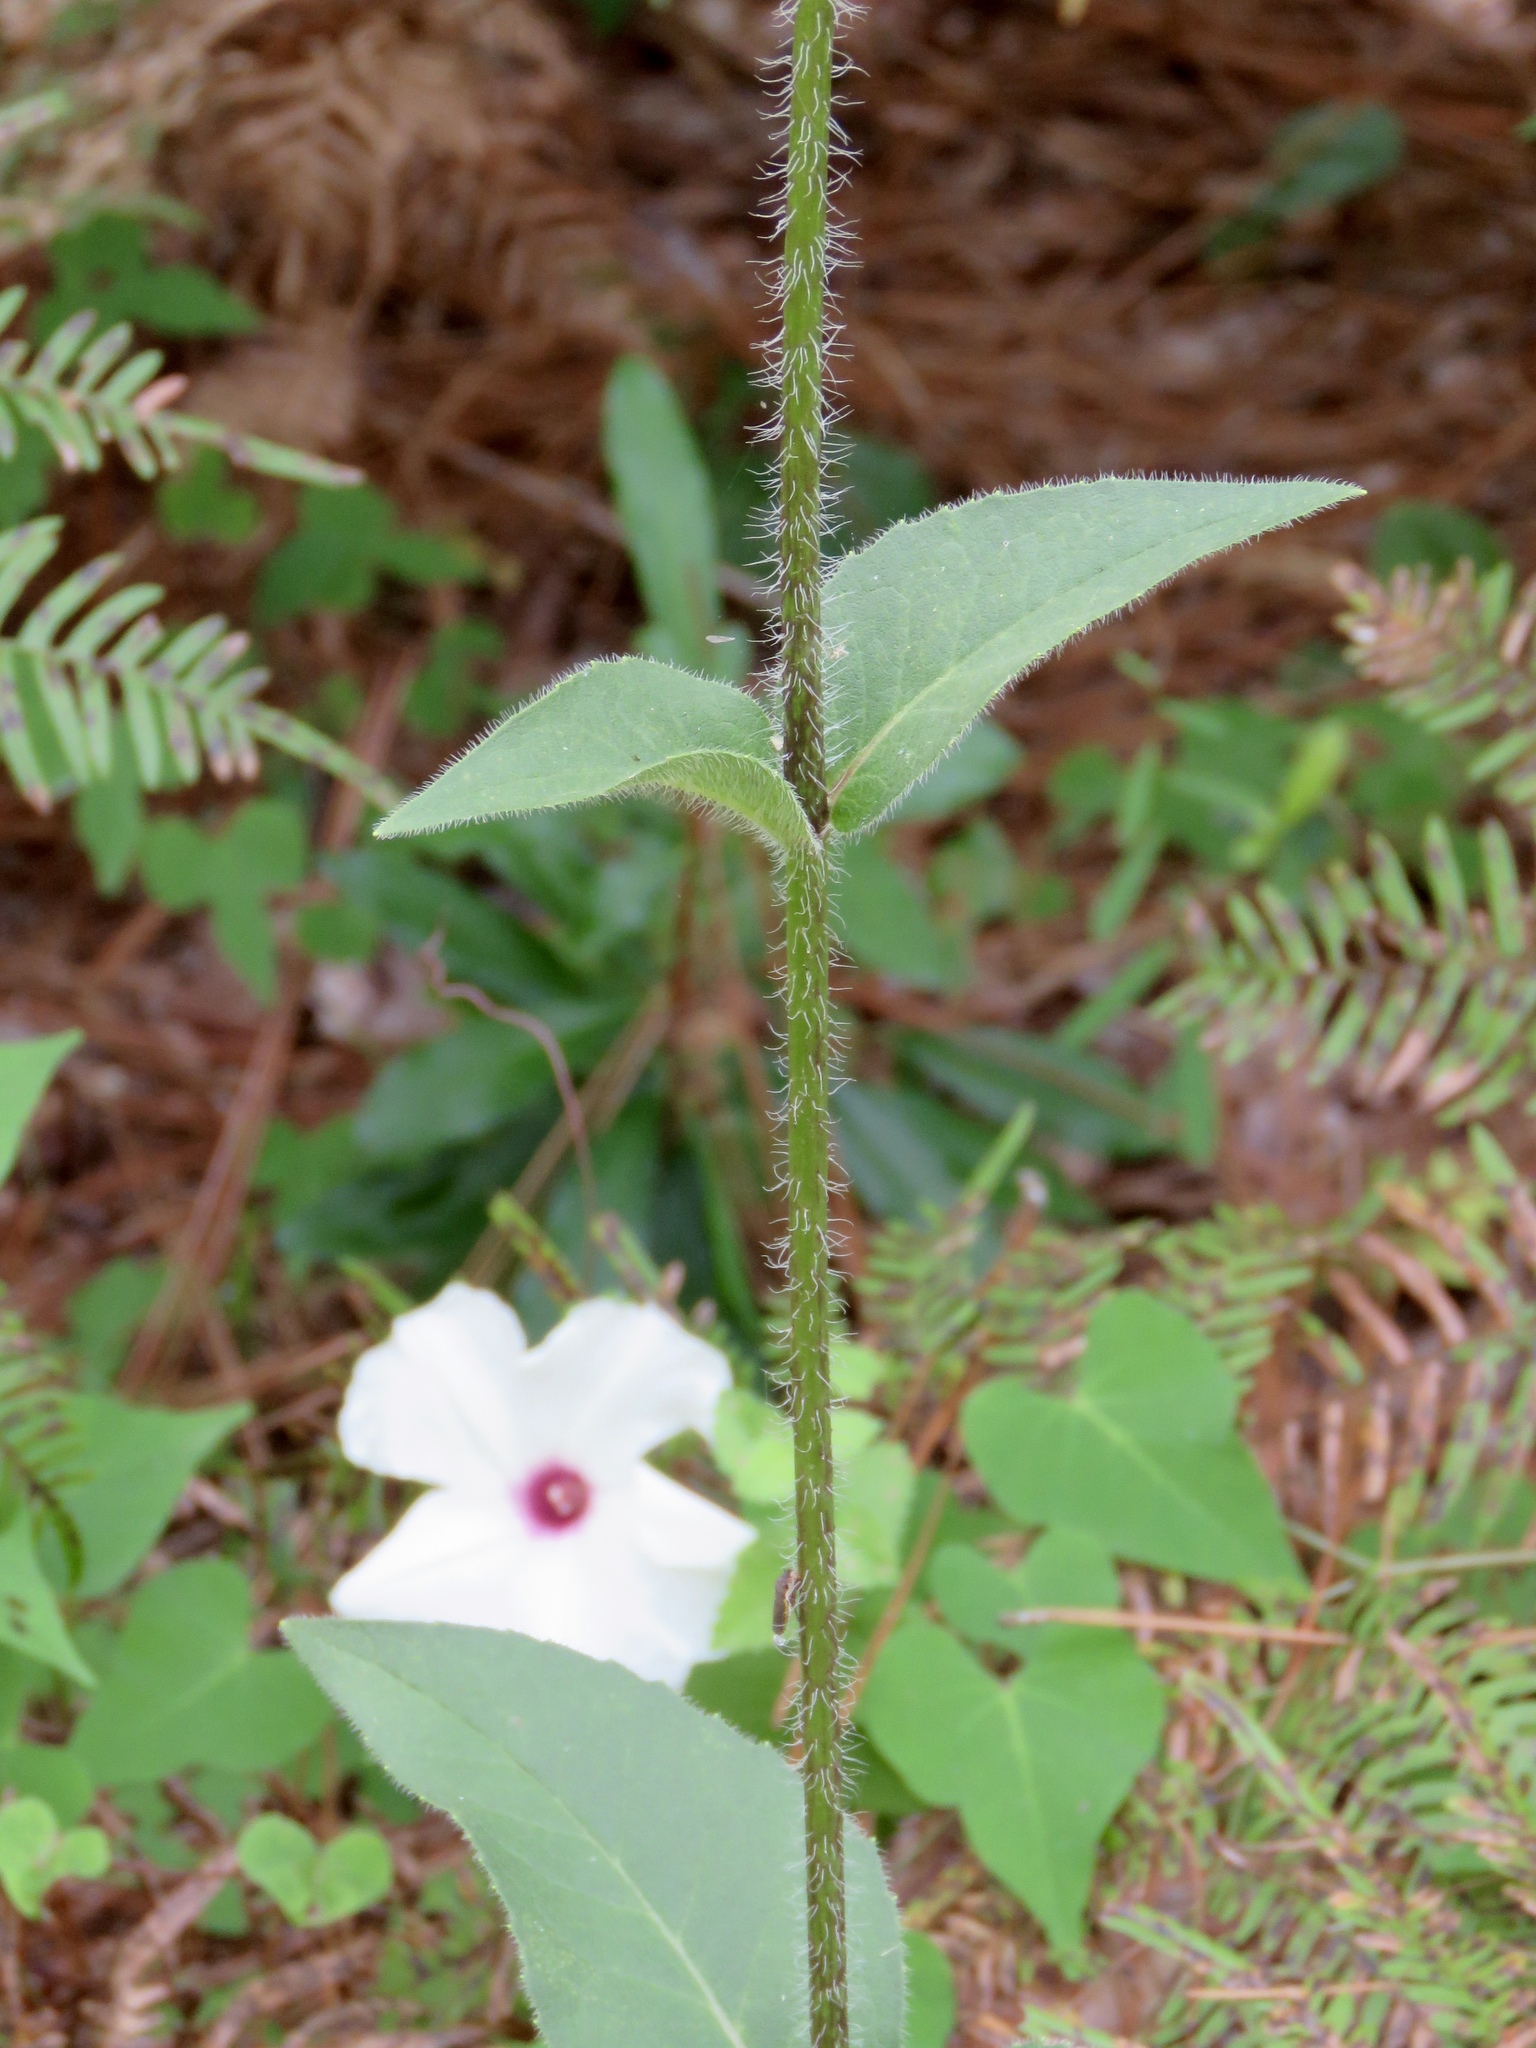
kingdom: Plantae
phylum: Tracheophyta
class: Magnoliopsida
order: Asterales
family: Asteraceae
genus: Silphium
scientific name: Silphium radula
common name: Roughleaf rosinweed
